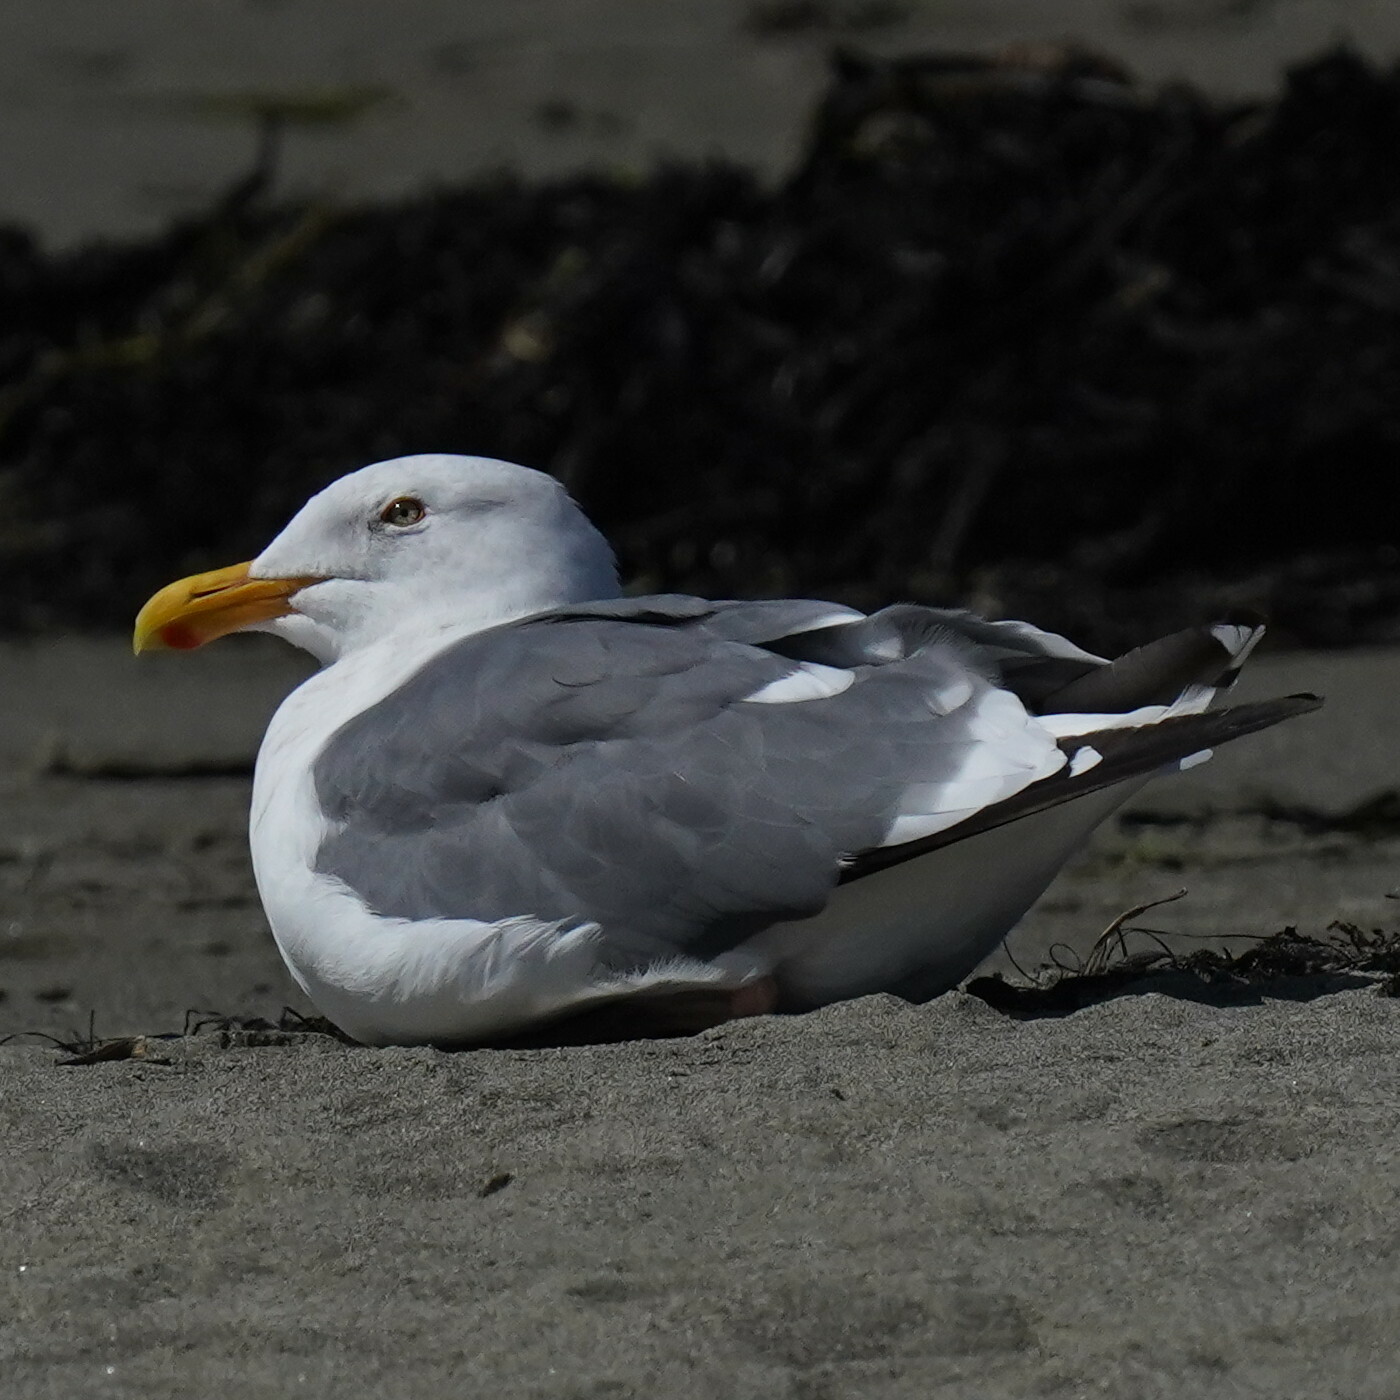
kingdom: Animalia
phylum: Chordata
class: Aves
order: Charadriiformes
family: Laridae
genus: Larus
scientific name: Larus occidentalis
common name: Western gull
